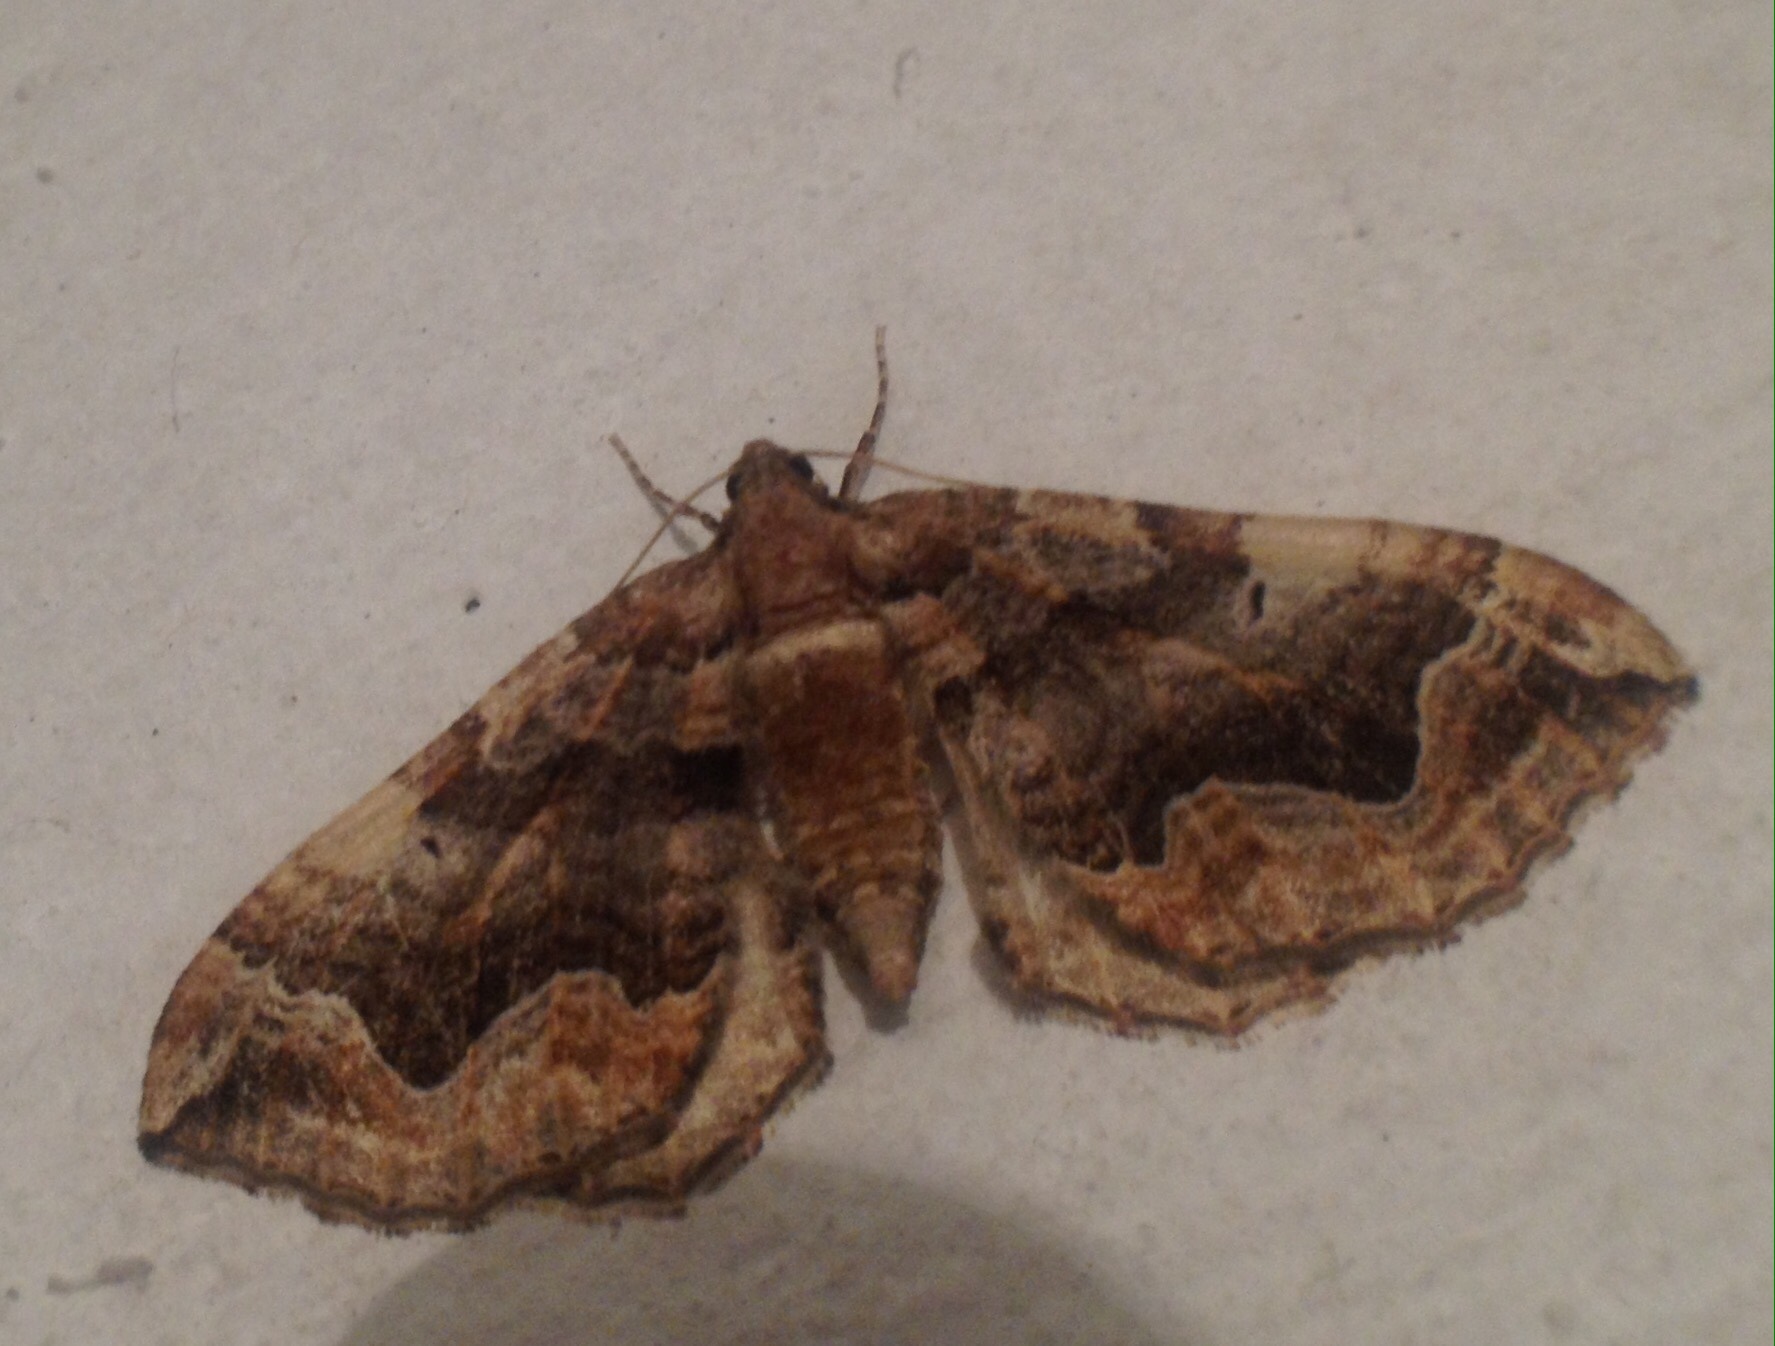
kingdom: Animalia
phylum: Arthropoda
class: Insecta
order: Lepidoptera
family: Geometridae
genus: Pelurga
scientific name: Pelurga comitata
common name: Dark spinach
